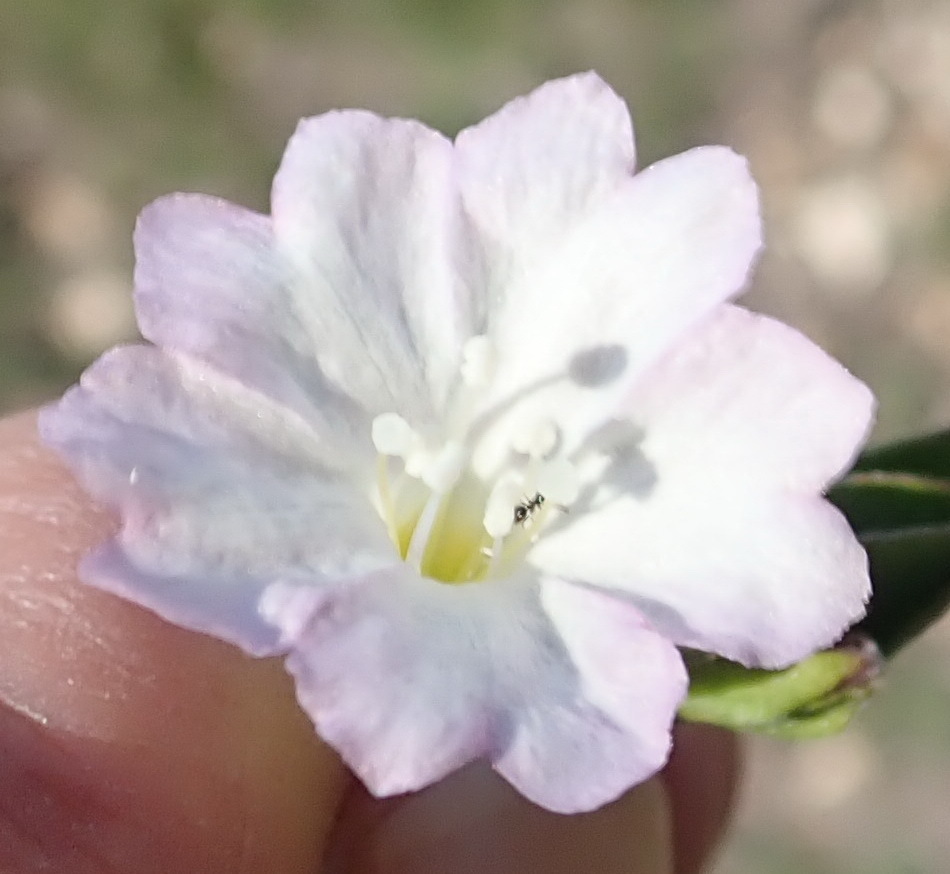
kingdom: Plantae
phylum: Tracheophyta
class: Magnoliopsida
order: Solanales
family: Convolvulaceae
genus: Falkia
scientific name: Falkia repens
